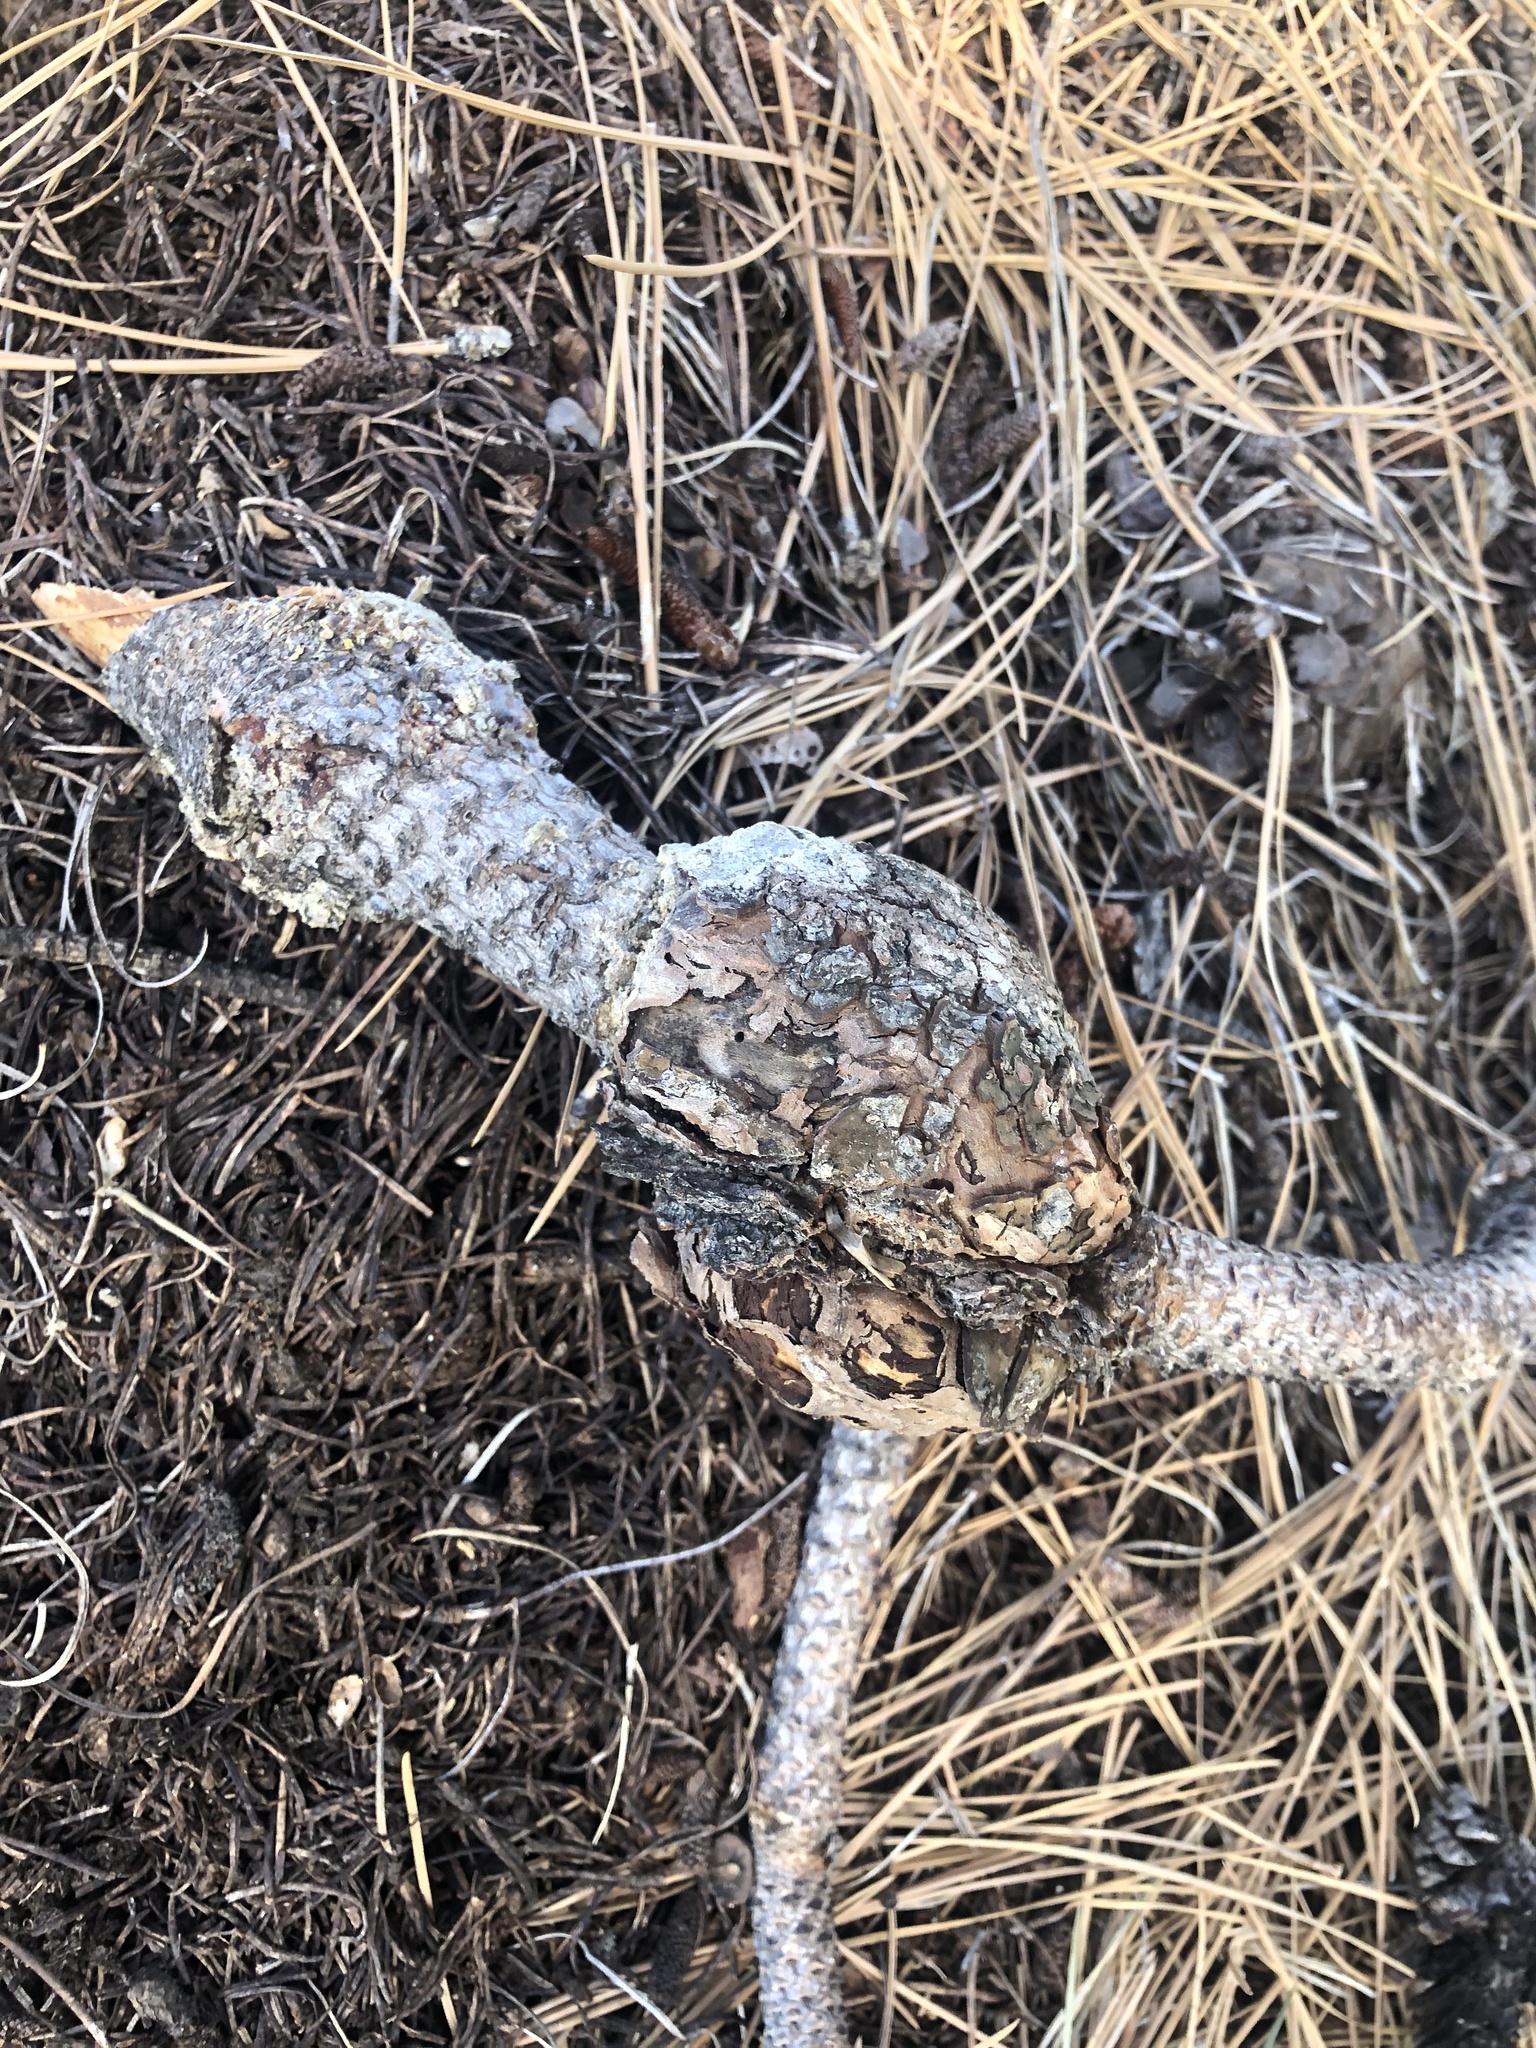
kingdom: Fungi
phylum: Basidiomycota
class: Pucciniomycetes
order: Pucciniales
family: Cronartiaceae
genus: Cronartium
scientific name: Cronartium harknessii
